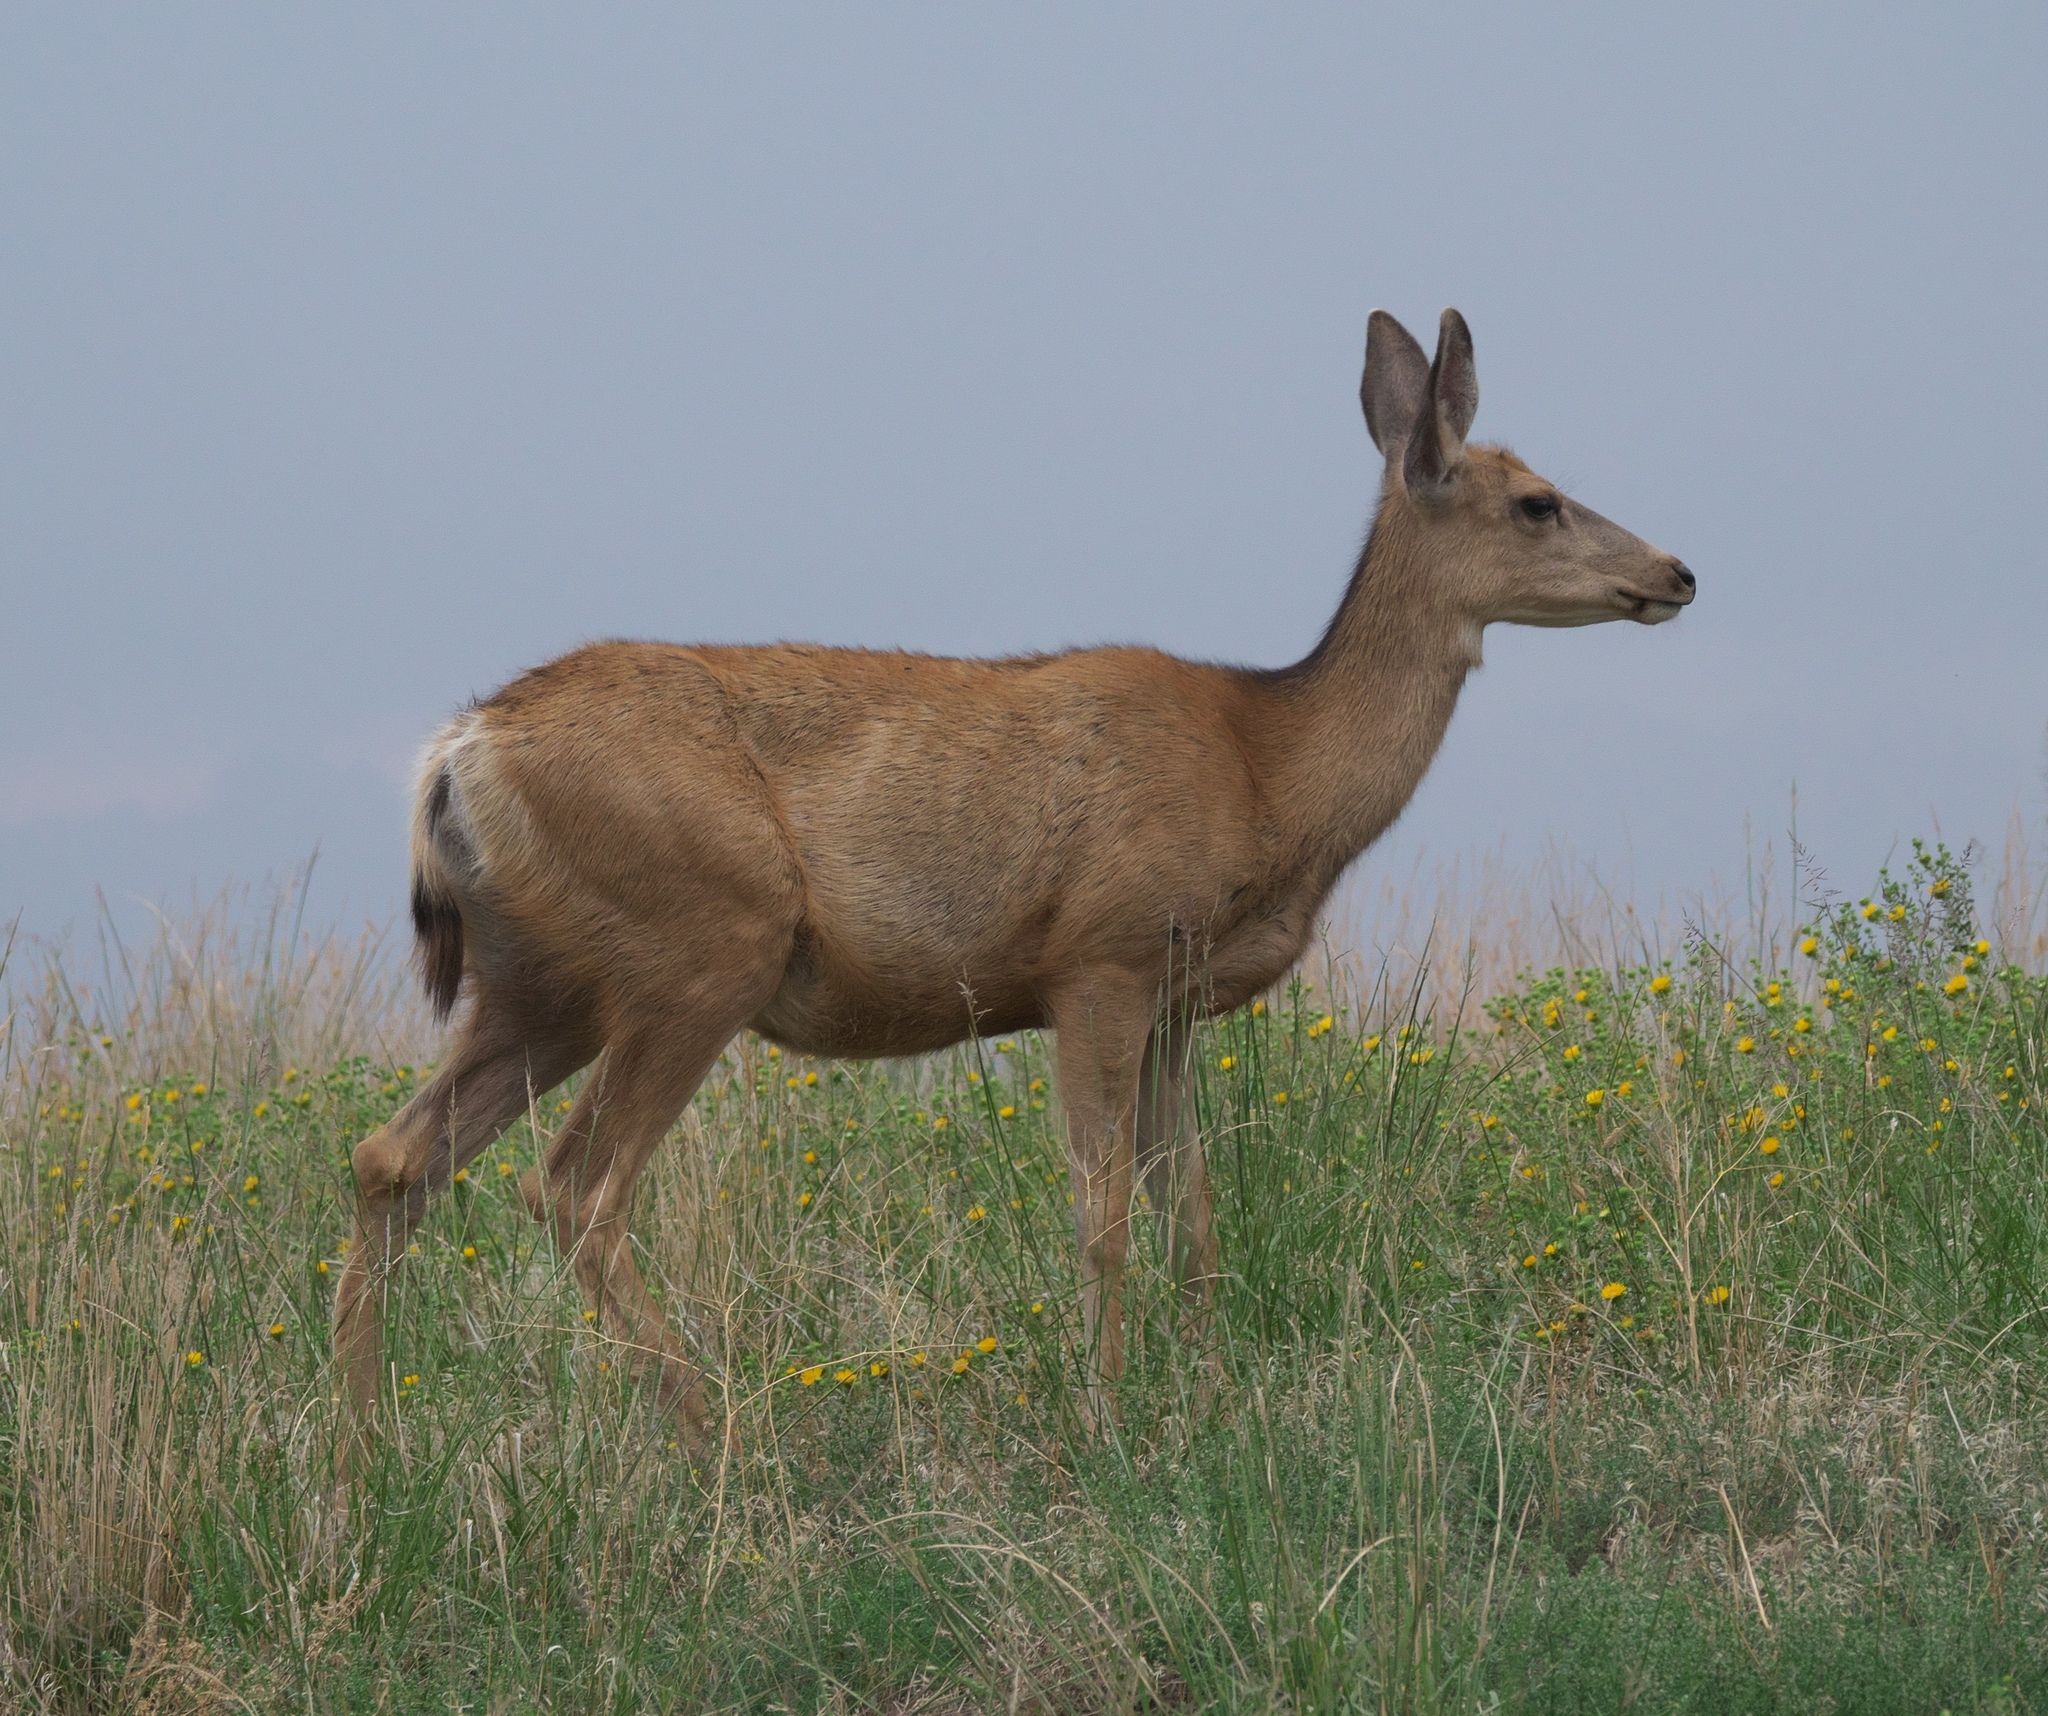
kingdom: Animalia
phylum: Chordata
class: Mammalia
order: Artiodactyla
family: Cervidae
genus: Odocoileus
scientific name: Odocoileus hemionus
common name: Mule deer
